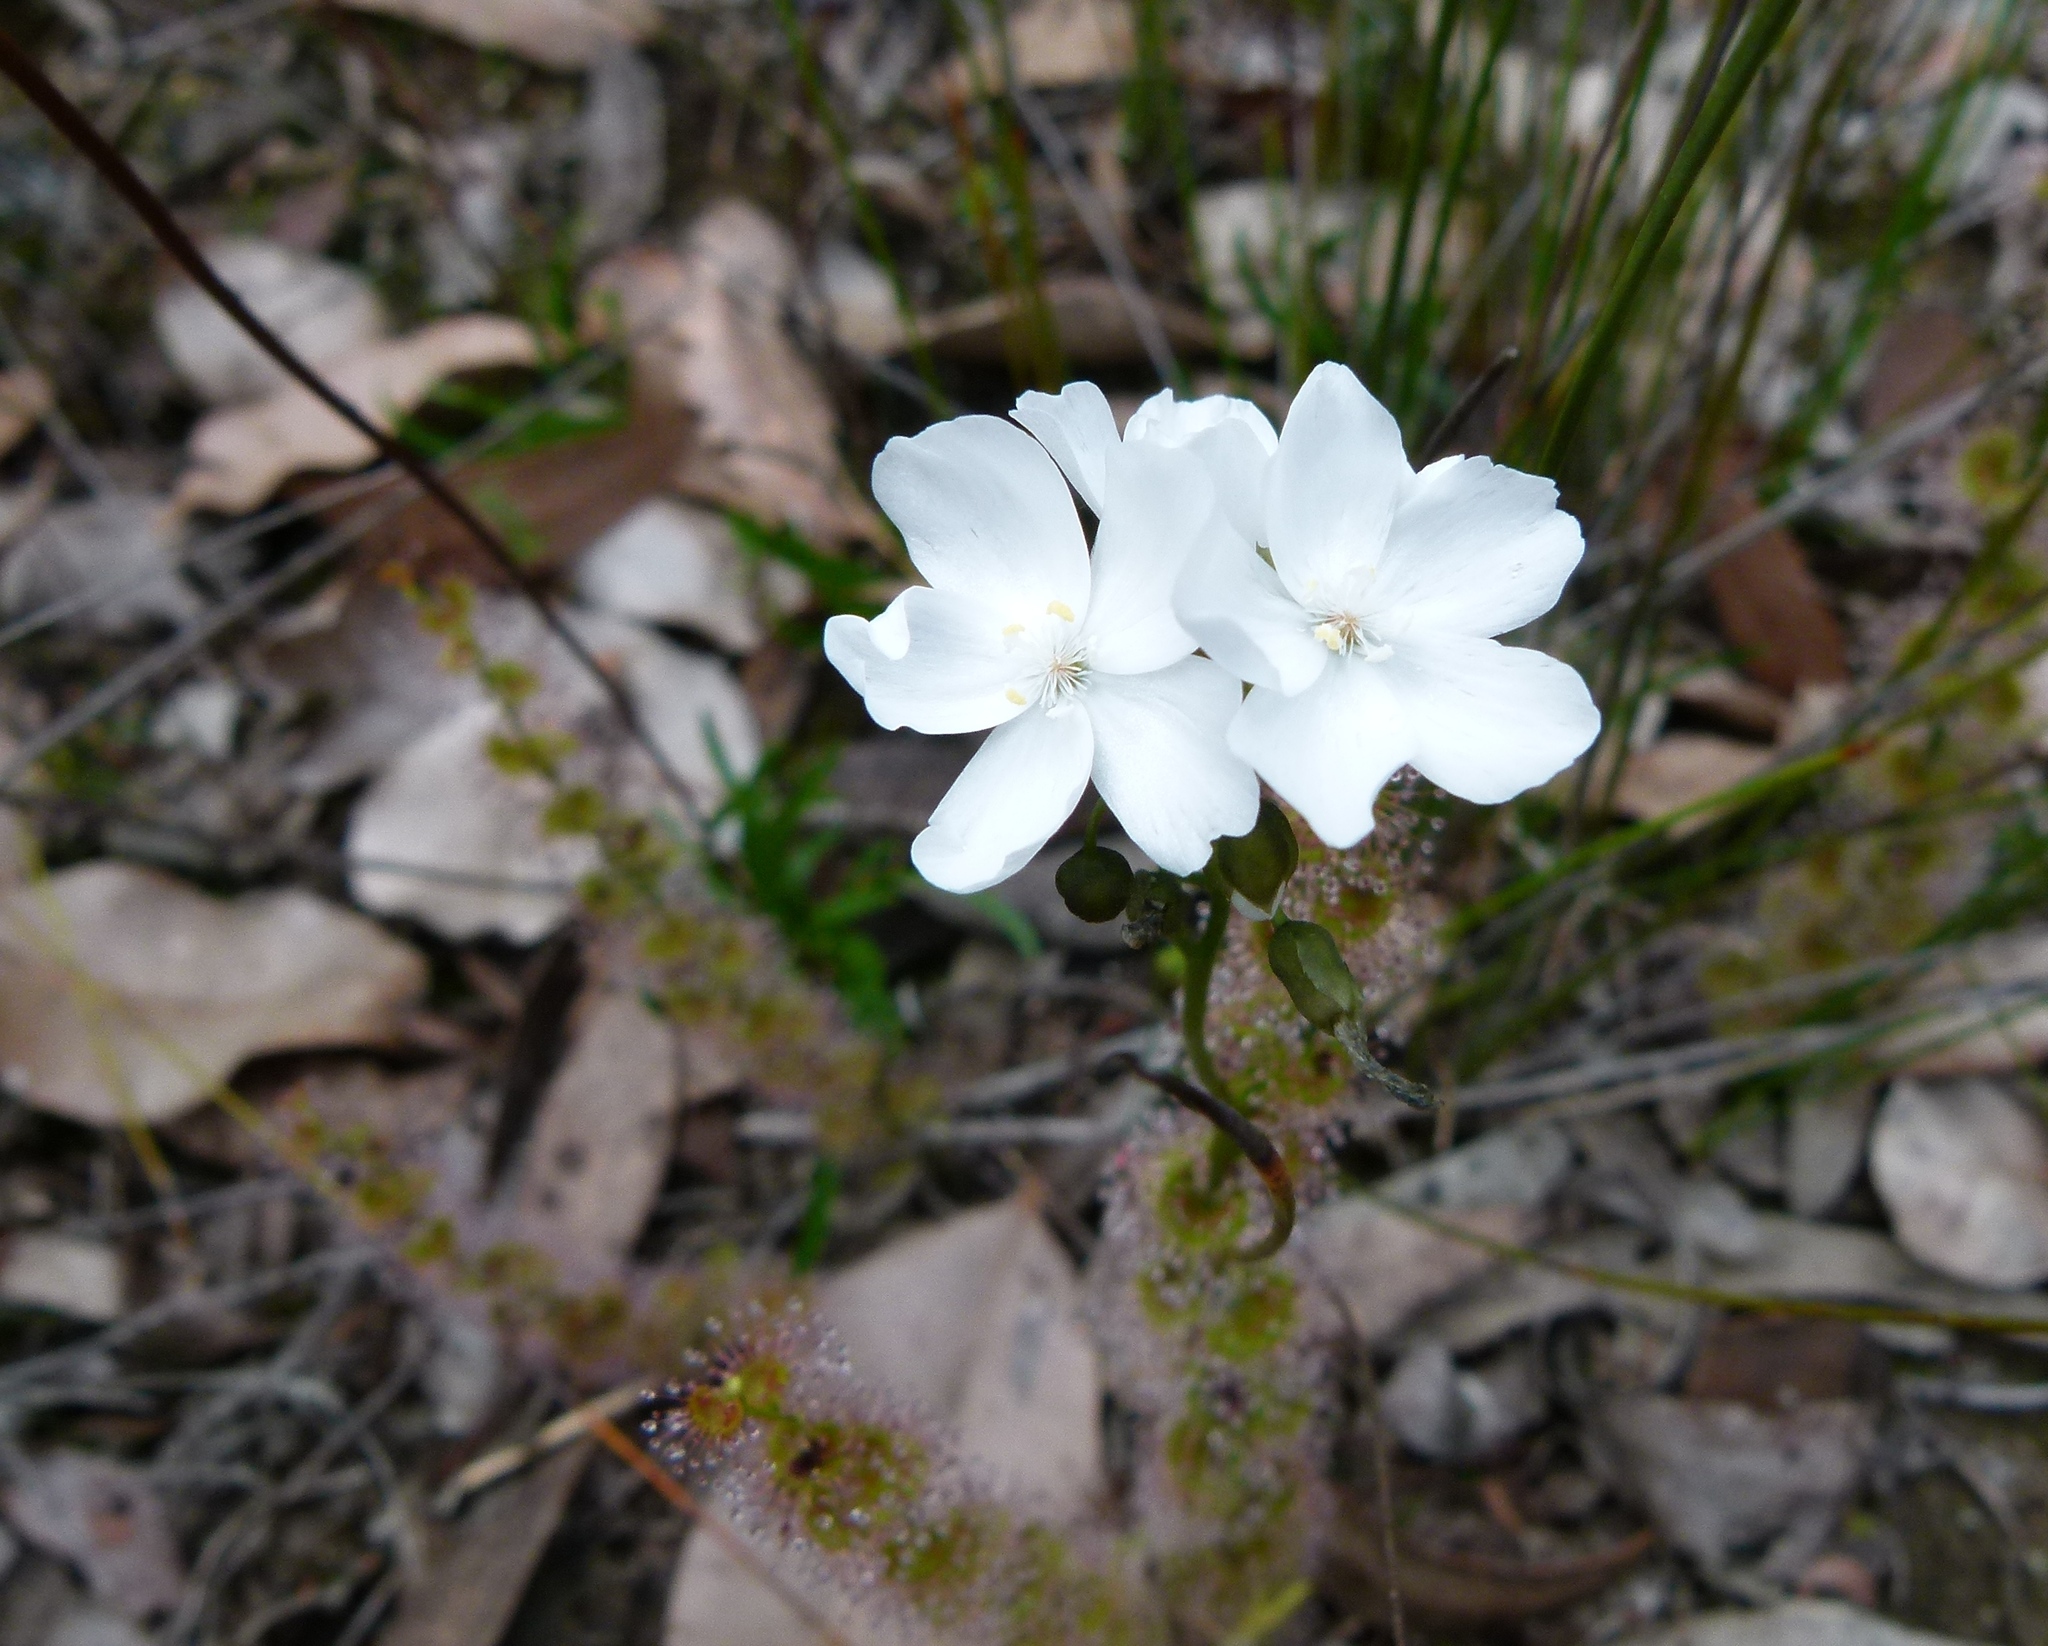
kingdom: Plantae
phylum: Tracheophyta
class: Magnoliopsida
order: Caryophyllales
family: Droseraceae
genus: Drosera
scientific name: Drosera platypoda
